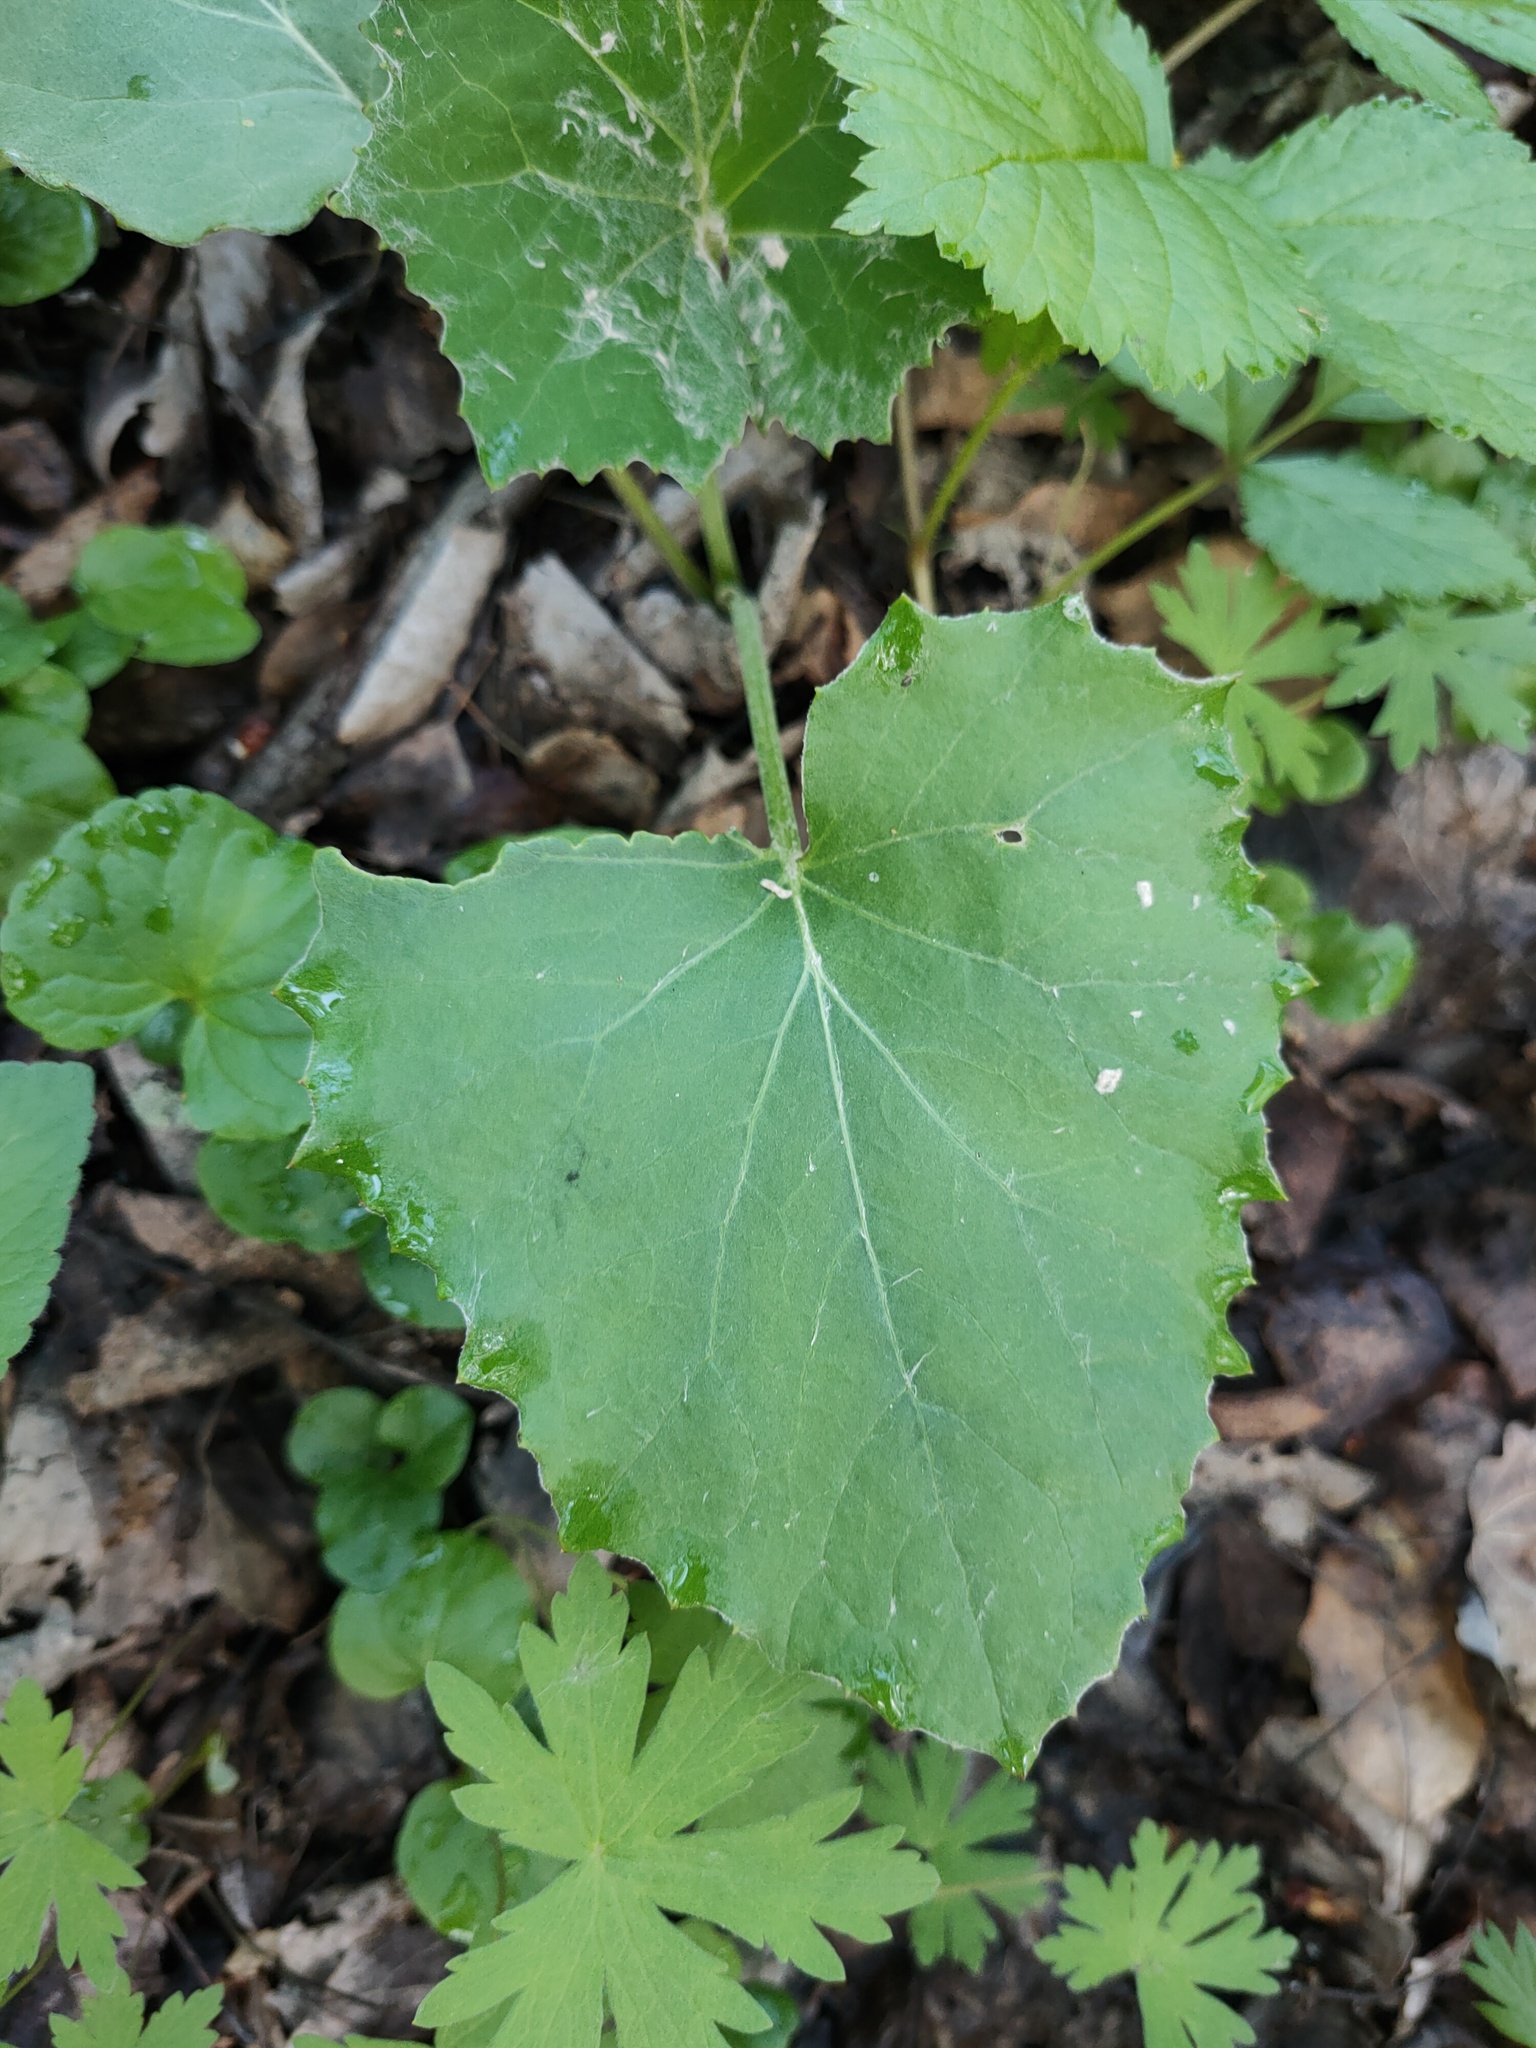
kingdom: Plantae
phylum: Tracheophyta
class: Magnoliopsida
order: Asterales
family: Asteraceae
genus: Tussilago
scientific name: Tussilago farfara
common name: Coltsfoot
